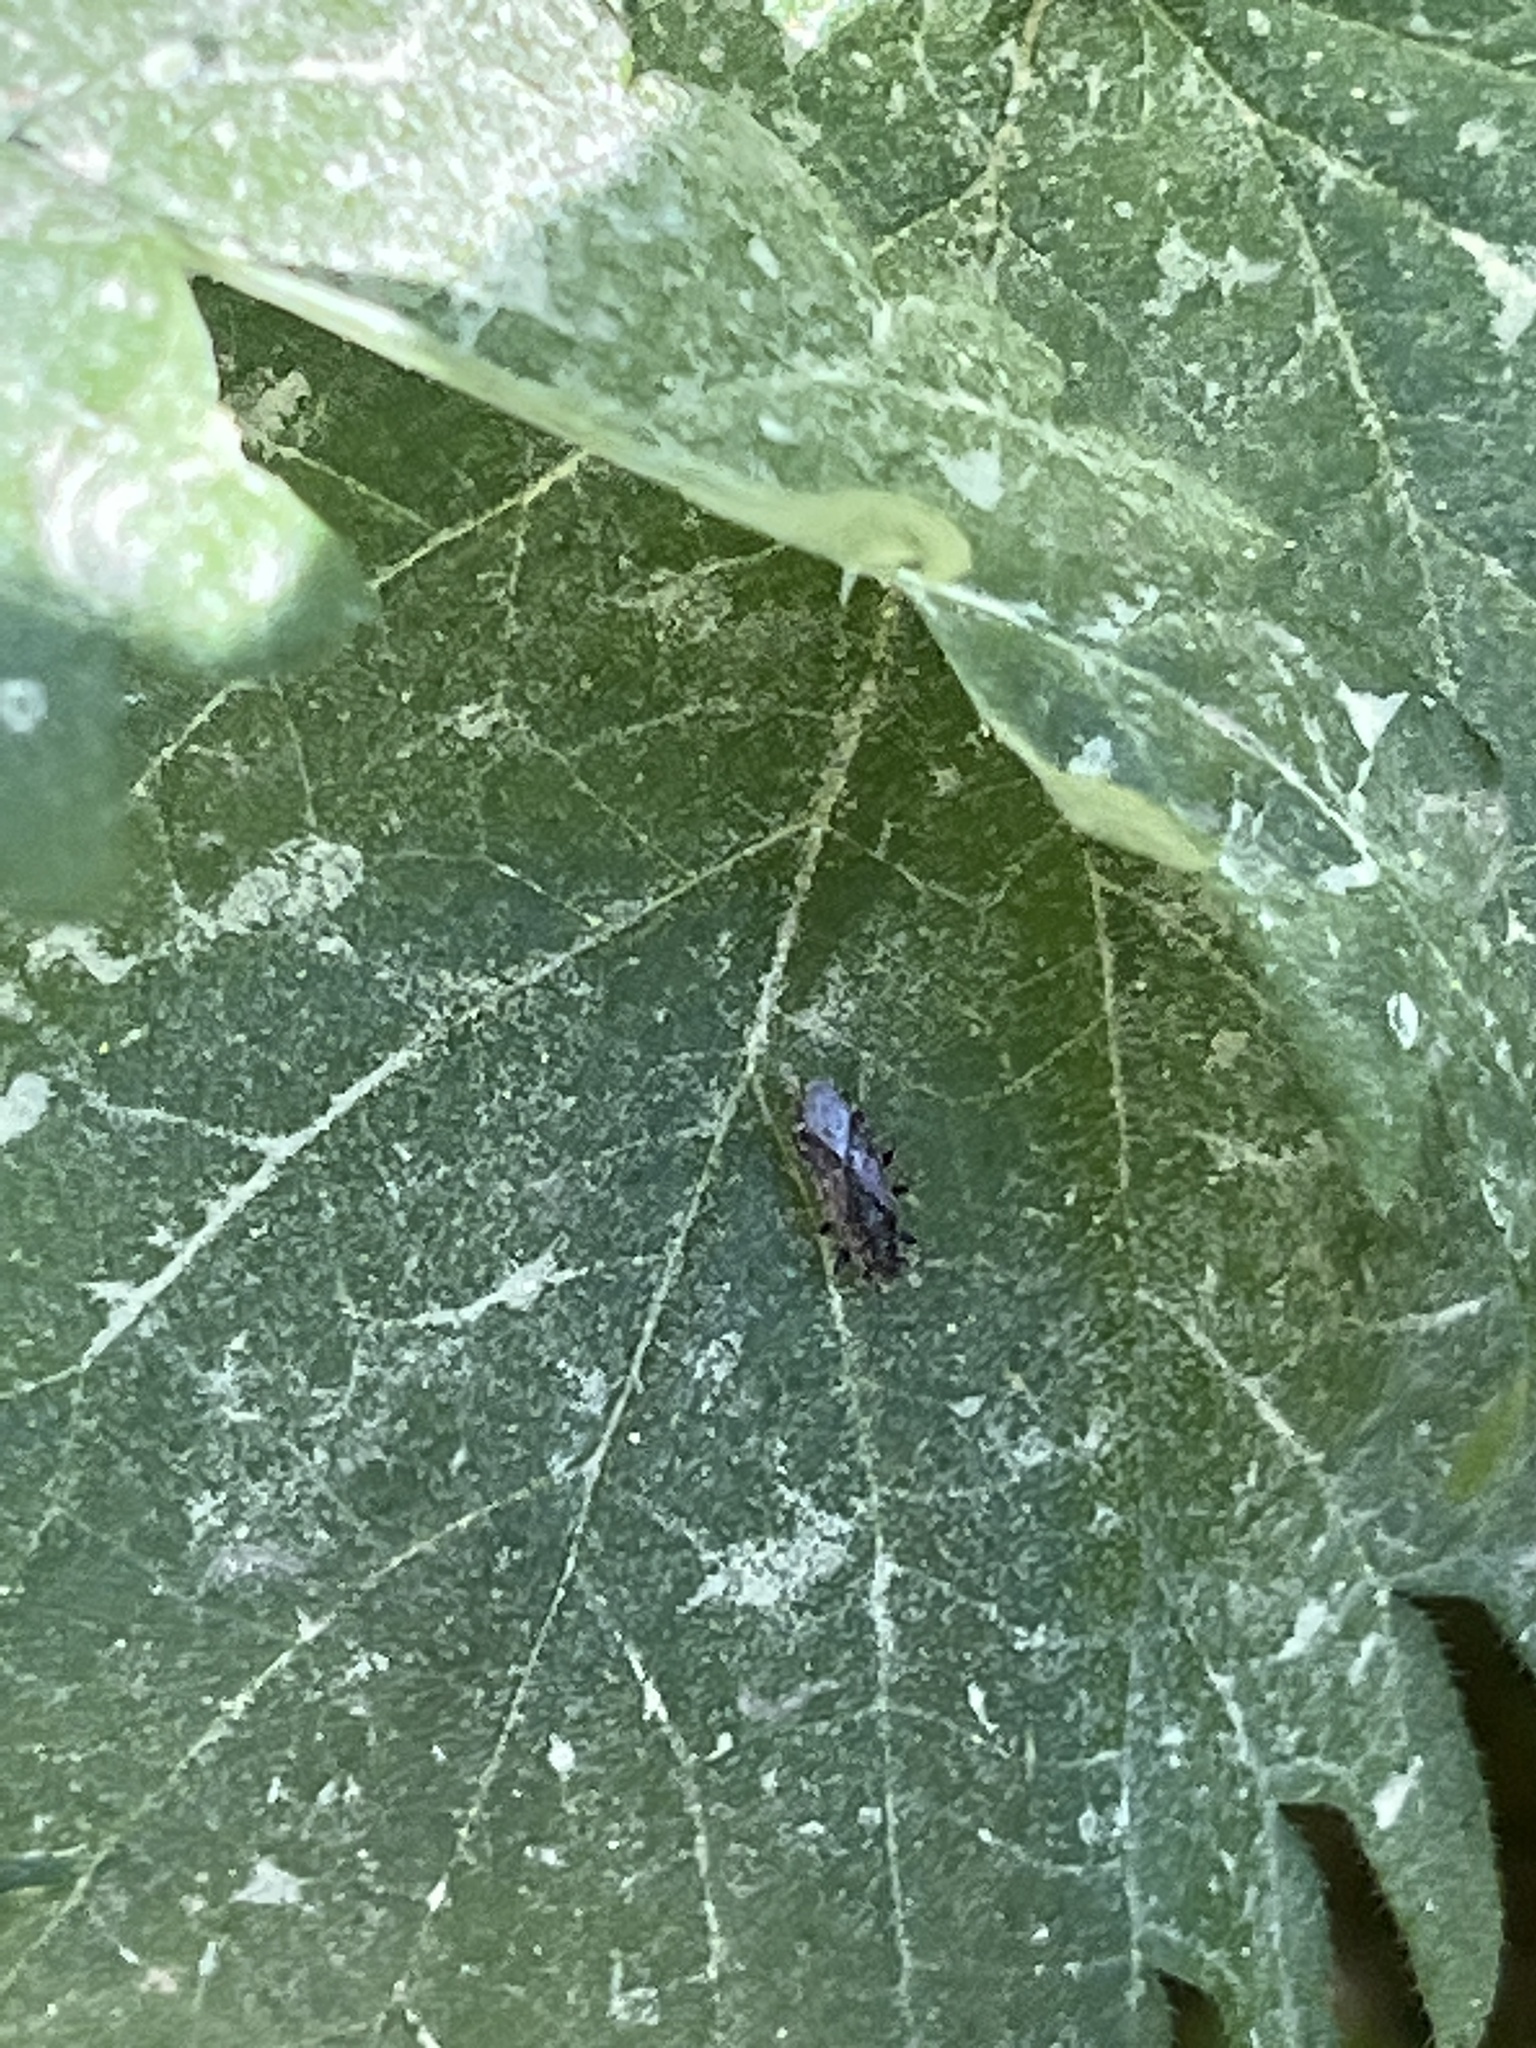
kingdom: Animalia
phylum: Arthropoda
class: Insecta
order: Hemiptera
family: Heterogastridae
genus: Heterogaster
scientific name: Heterogaster urticae
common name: Seed bug
